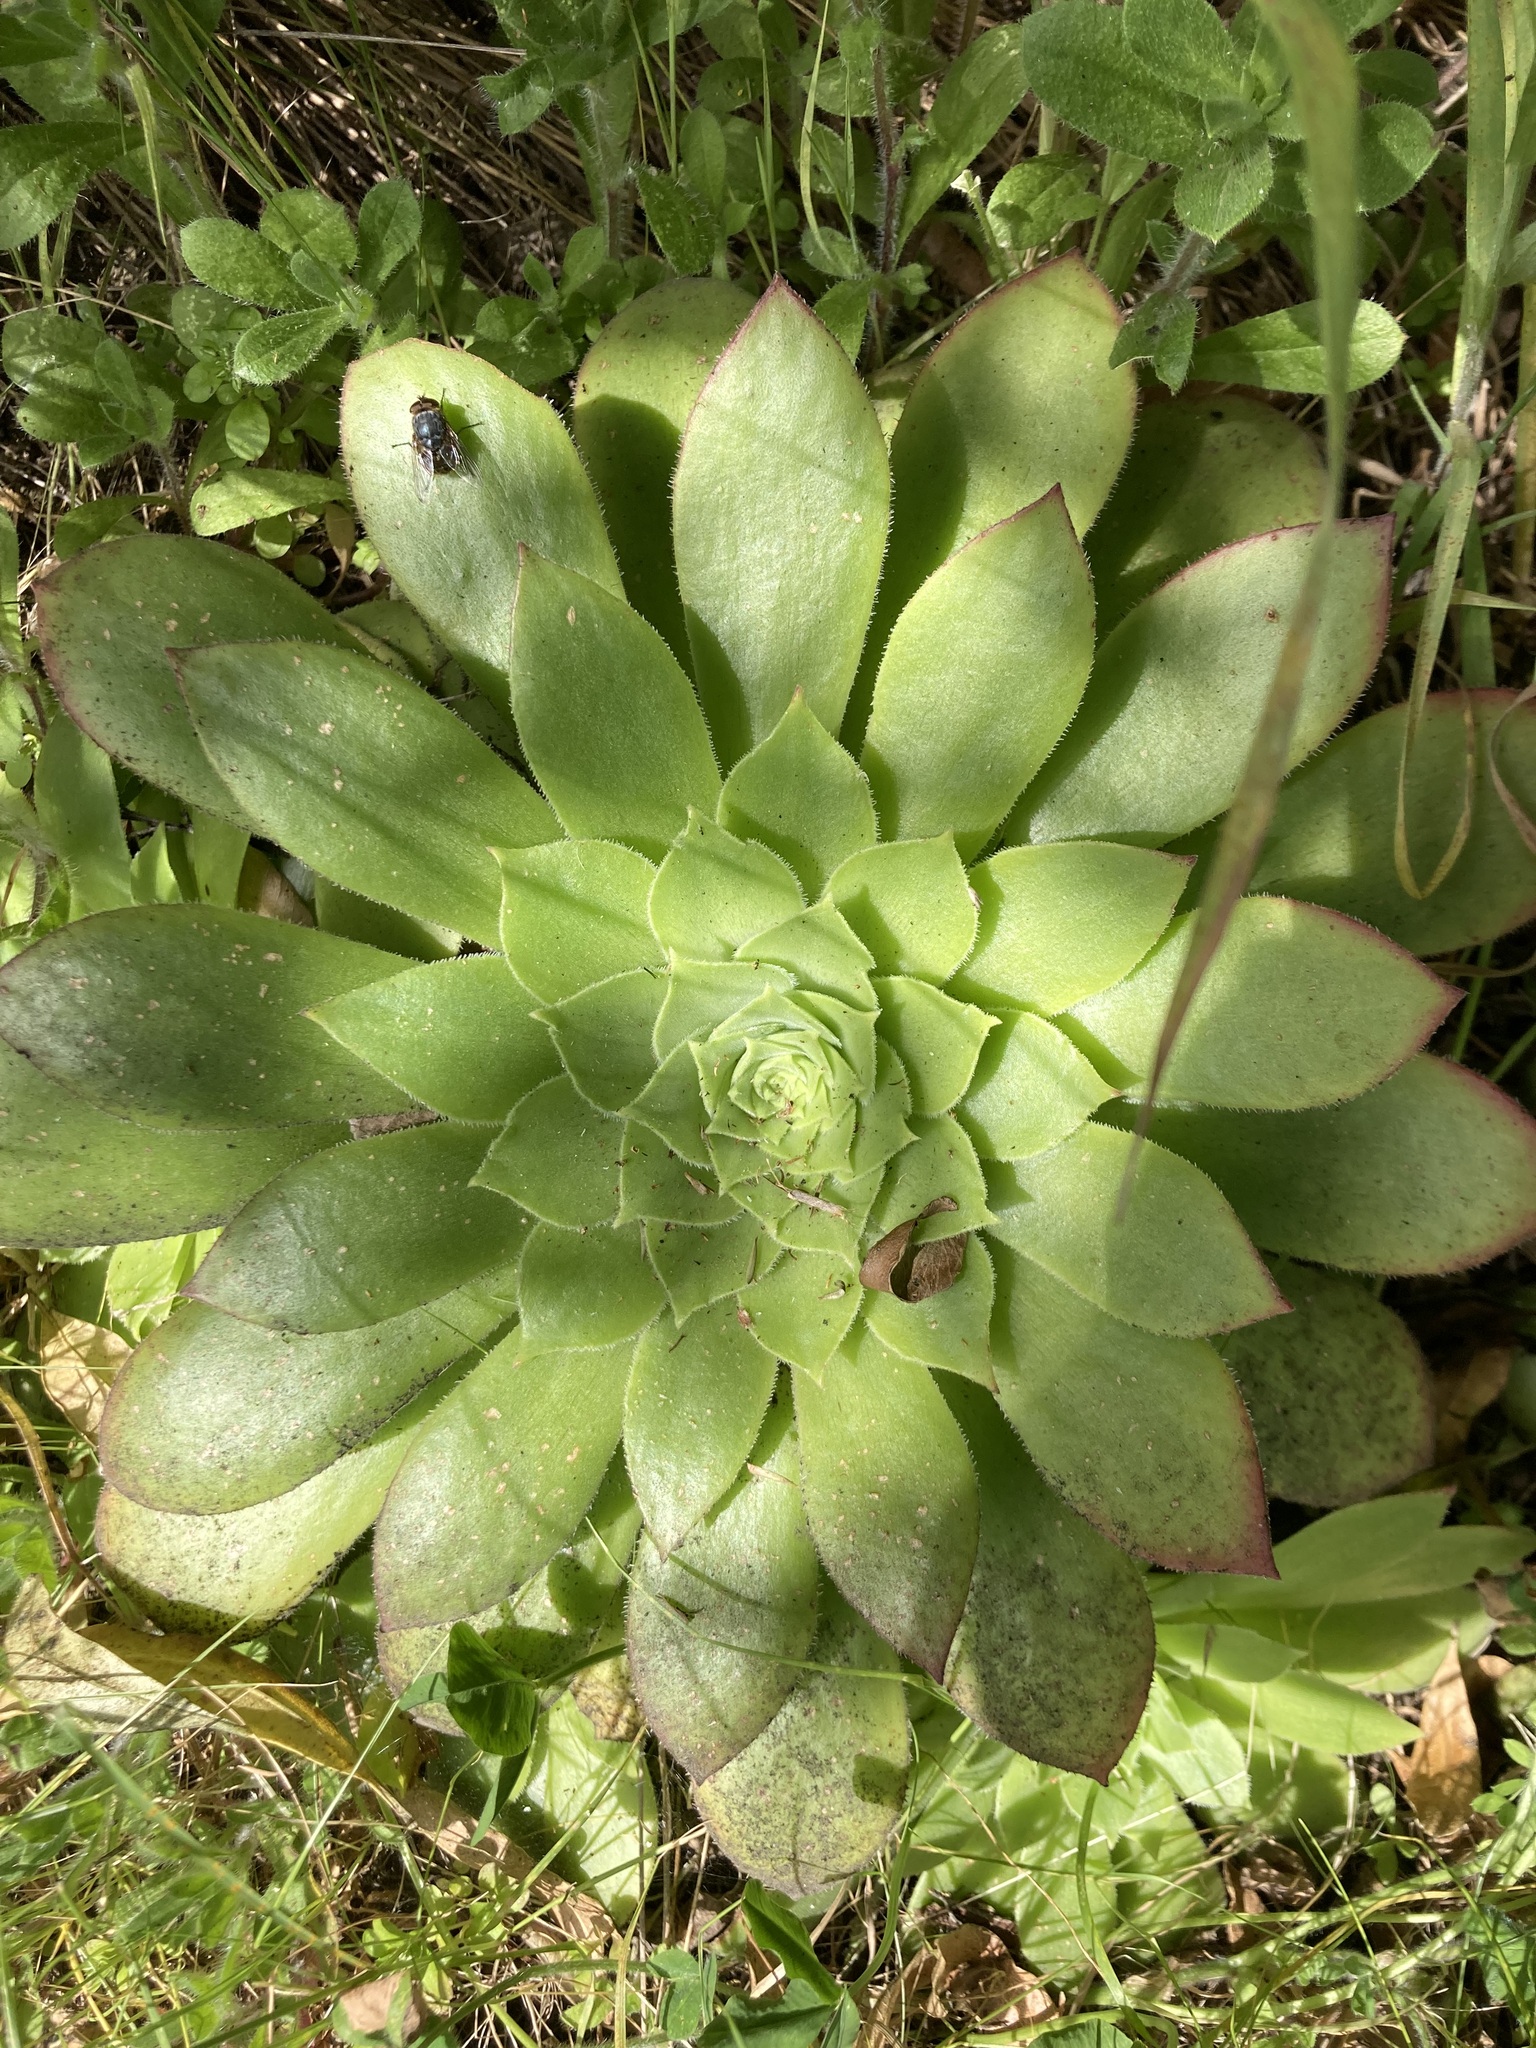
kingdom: Plantae
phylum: Tracheophyta
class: Magnoliopsida
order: Saxifragales
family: Crassulaceae
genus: Aeonium
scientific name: Aeonium arboreum
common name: Tree aeonium
